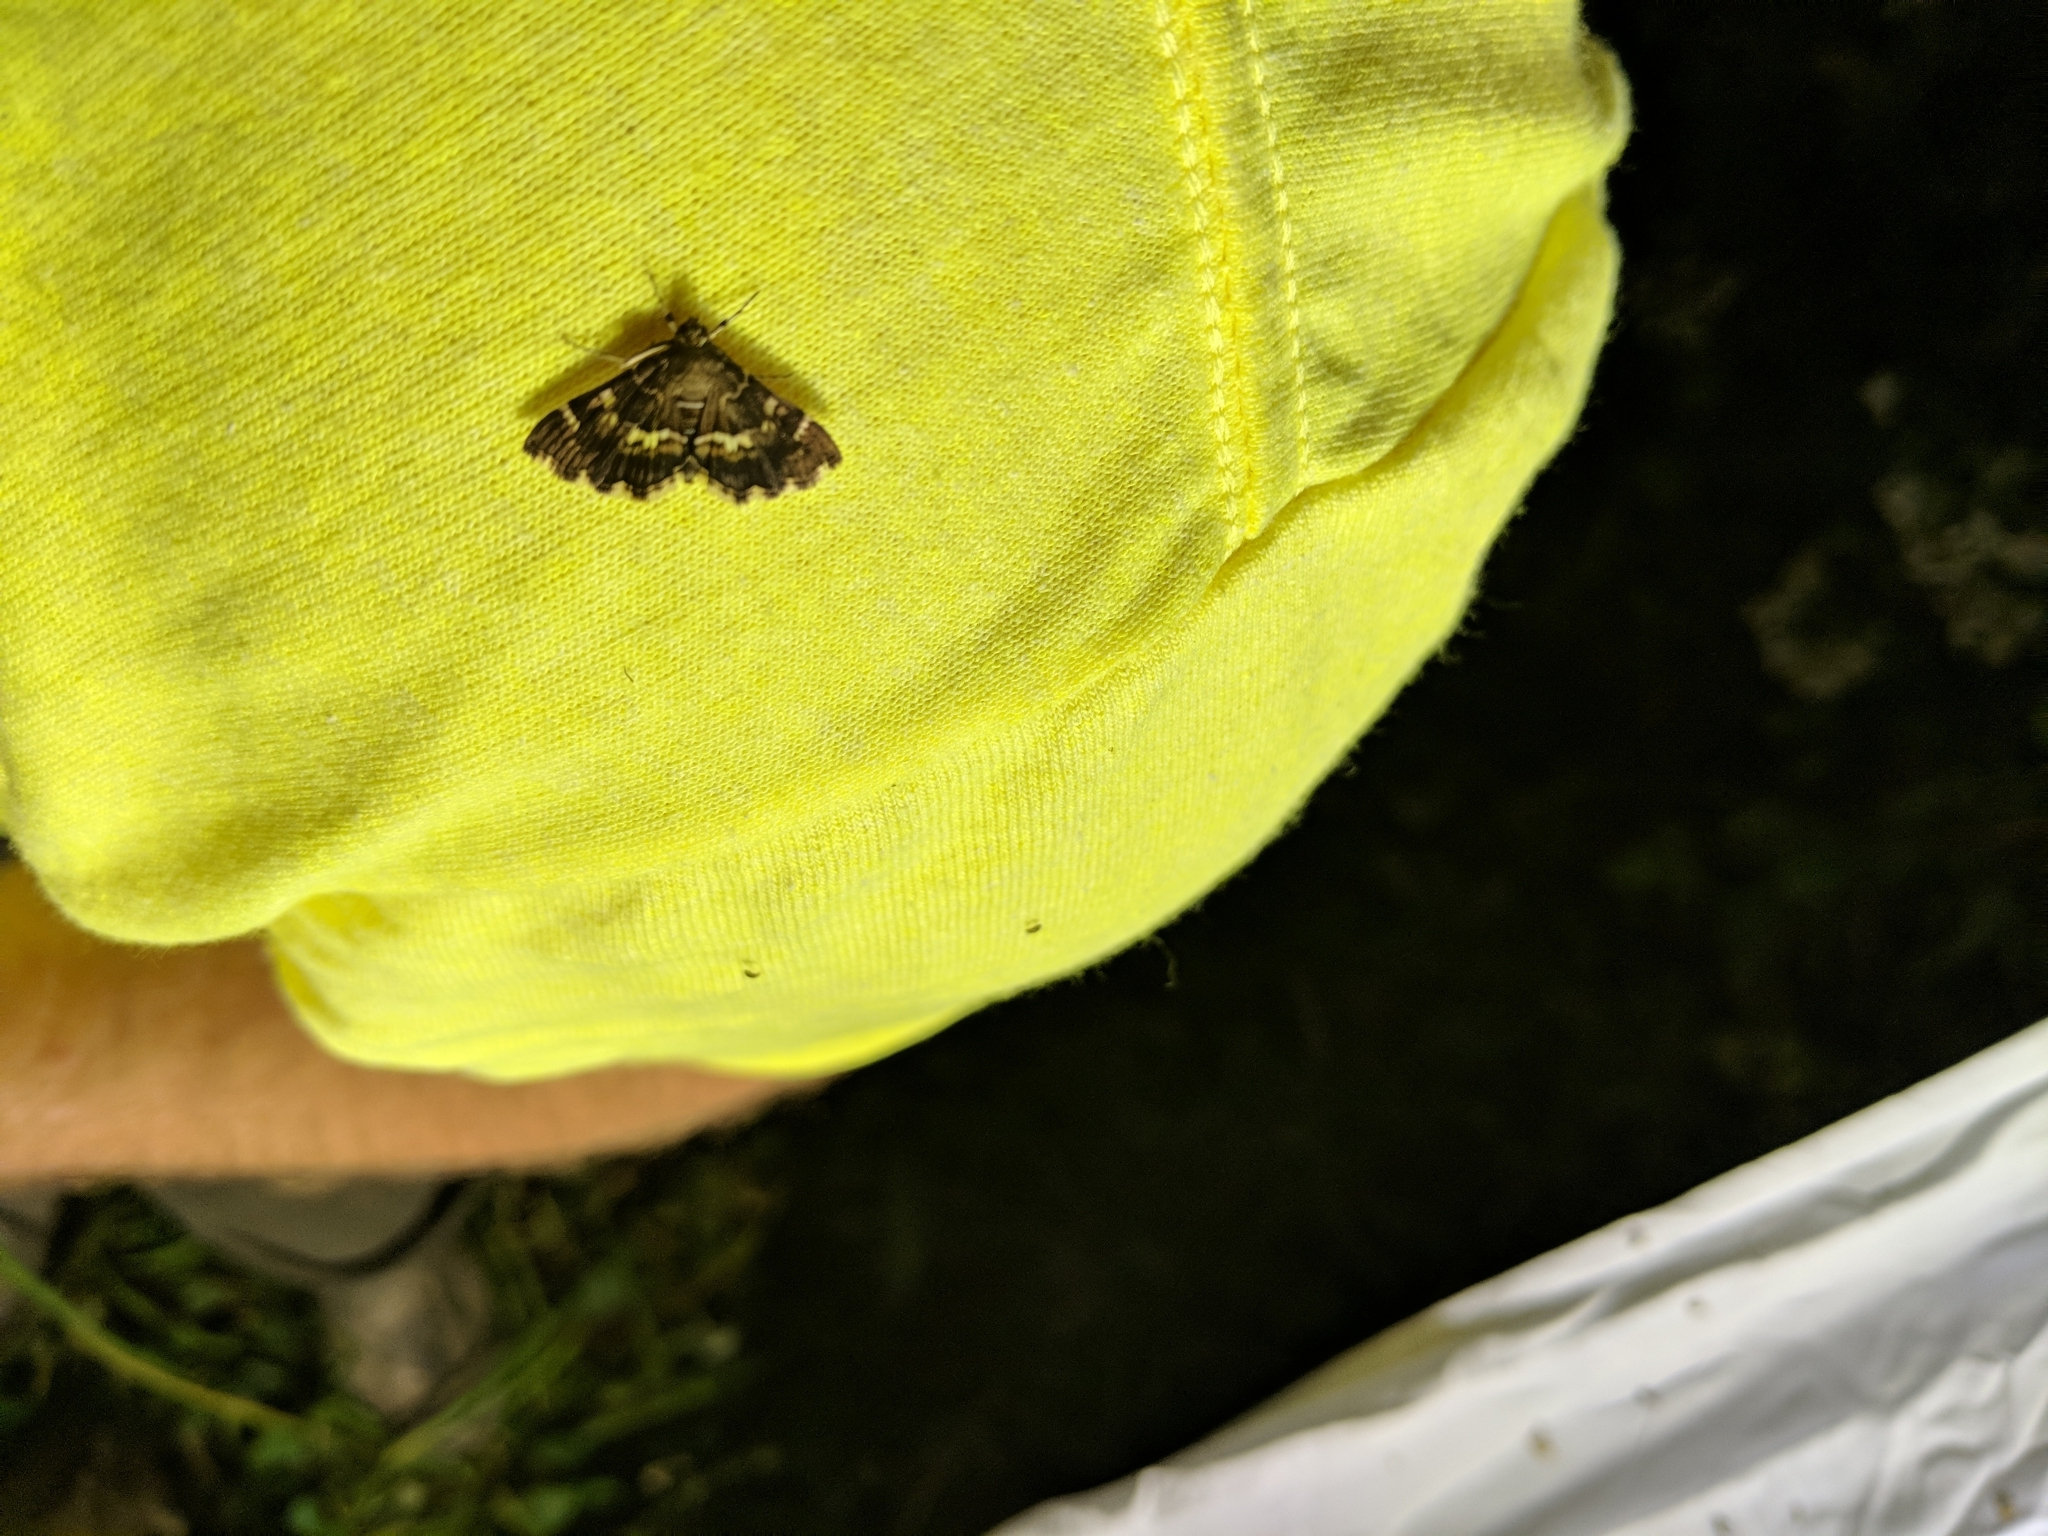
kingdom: Animalia
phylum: Arthropoda
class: Insecta
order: Lepidoptera
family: Crambidae
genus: Hymenia
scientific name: Hymenia perspectalis
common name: Spotted beet webworm
